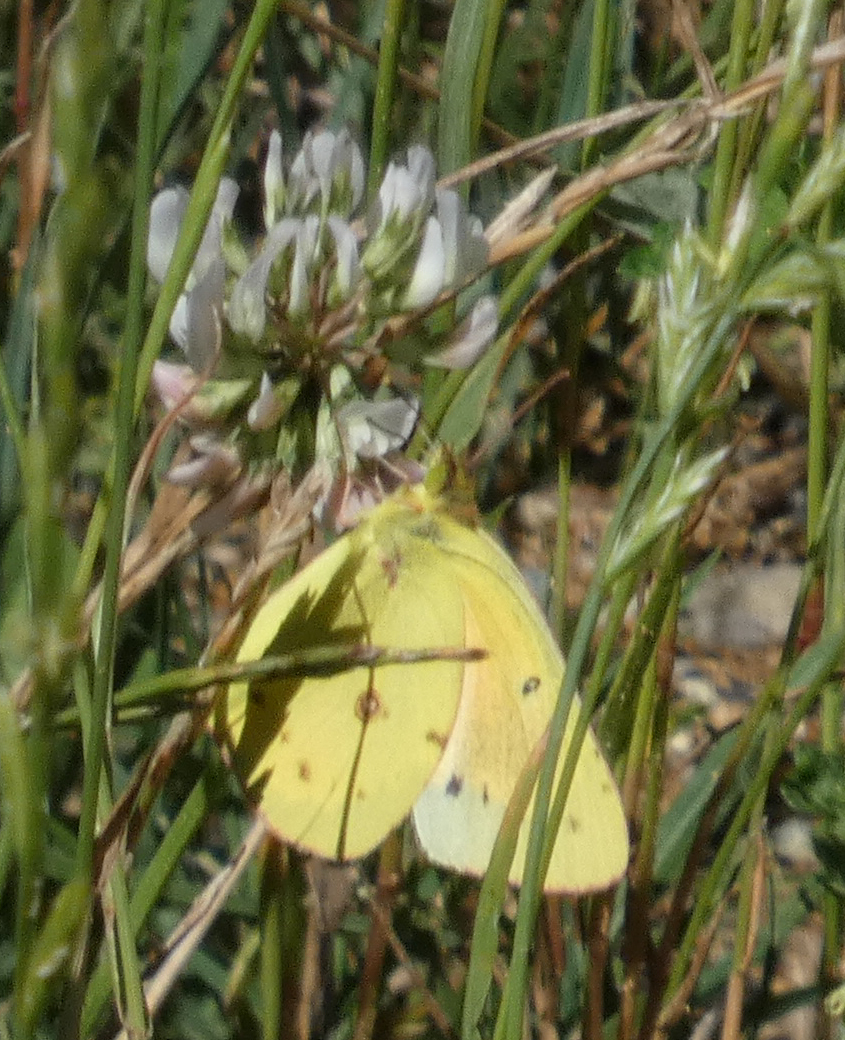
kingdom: Animalia
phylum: Arthropoda
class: Insecta
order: Lepidoptera
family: Pieridae
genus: Colias
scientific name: Colias eurytheme
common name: Alfalfa butterfly
